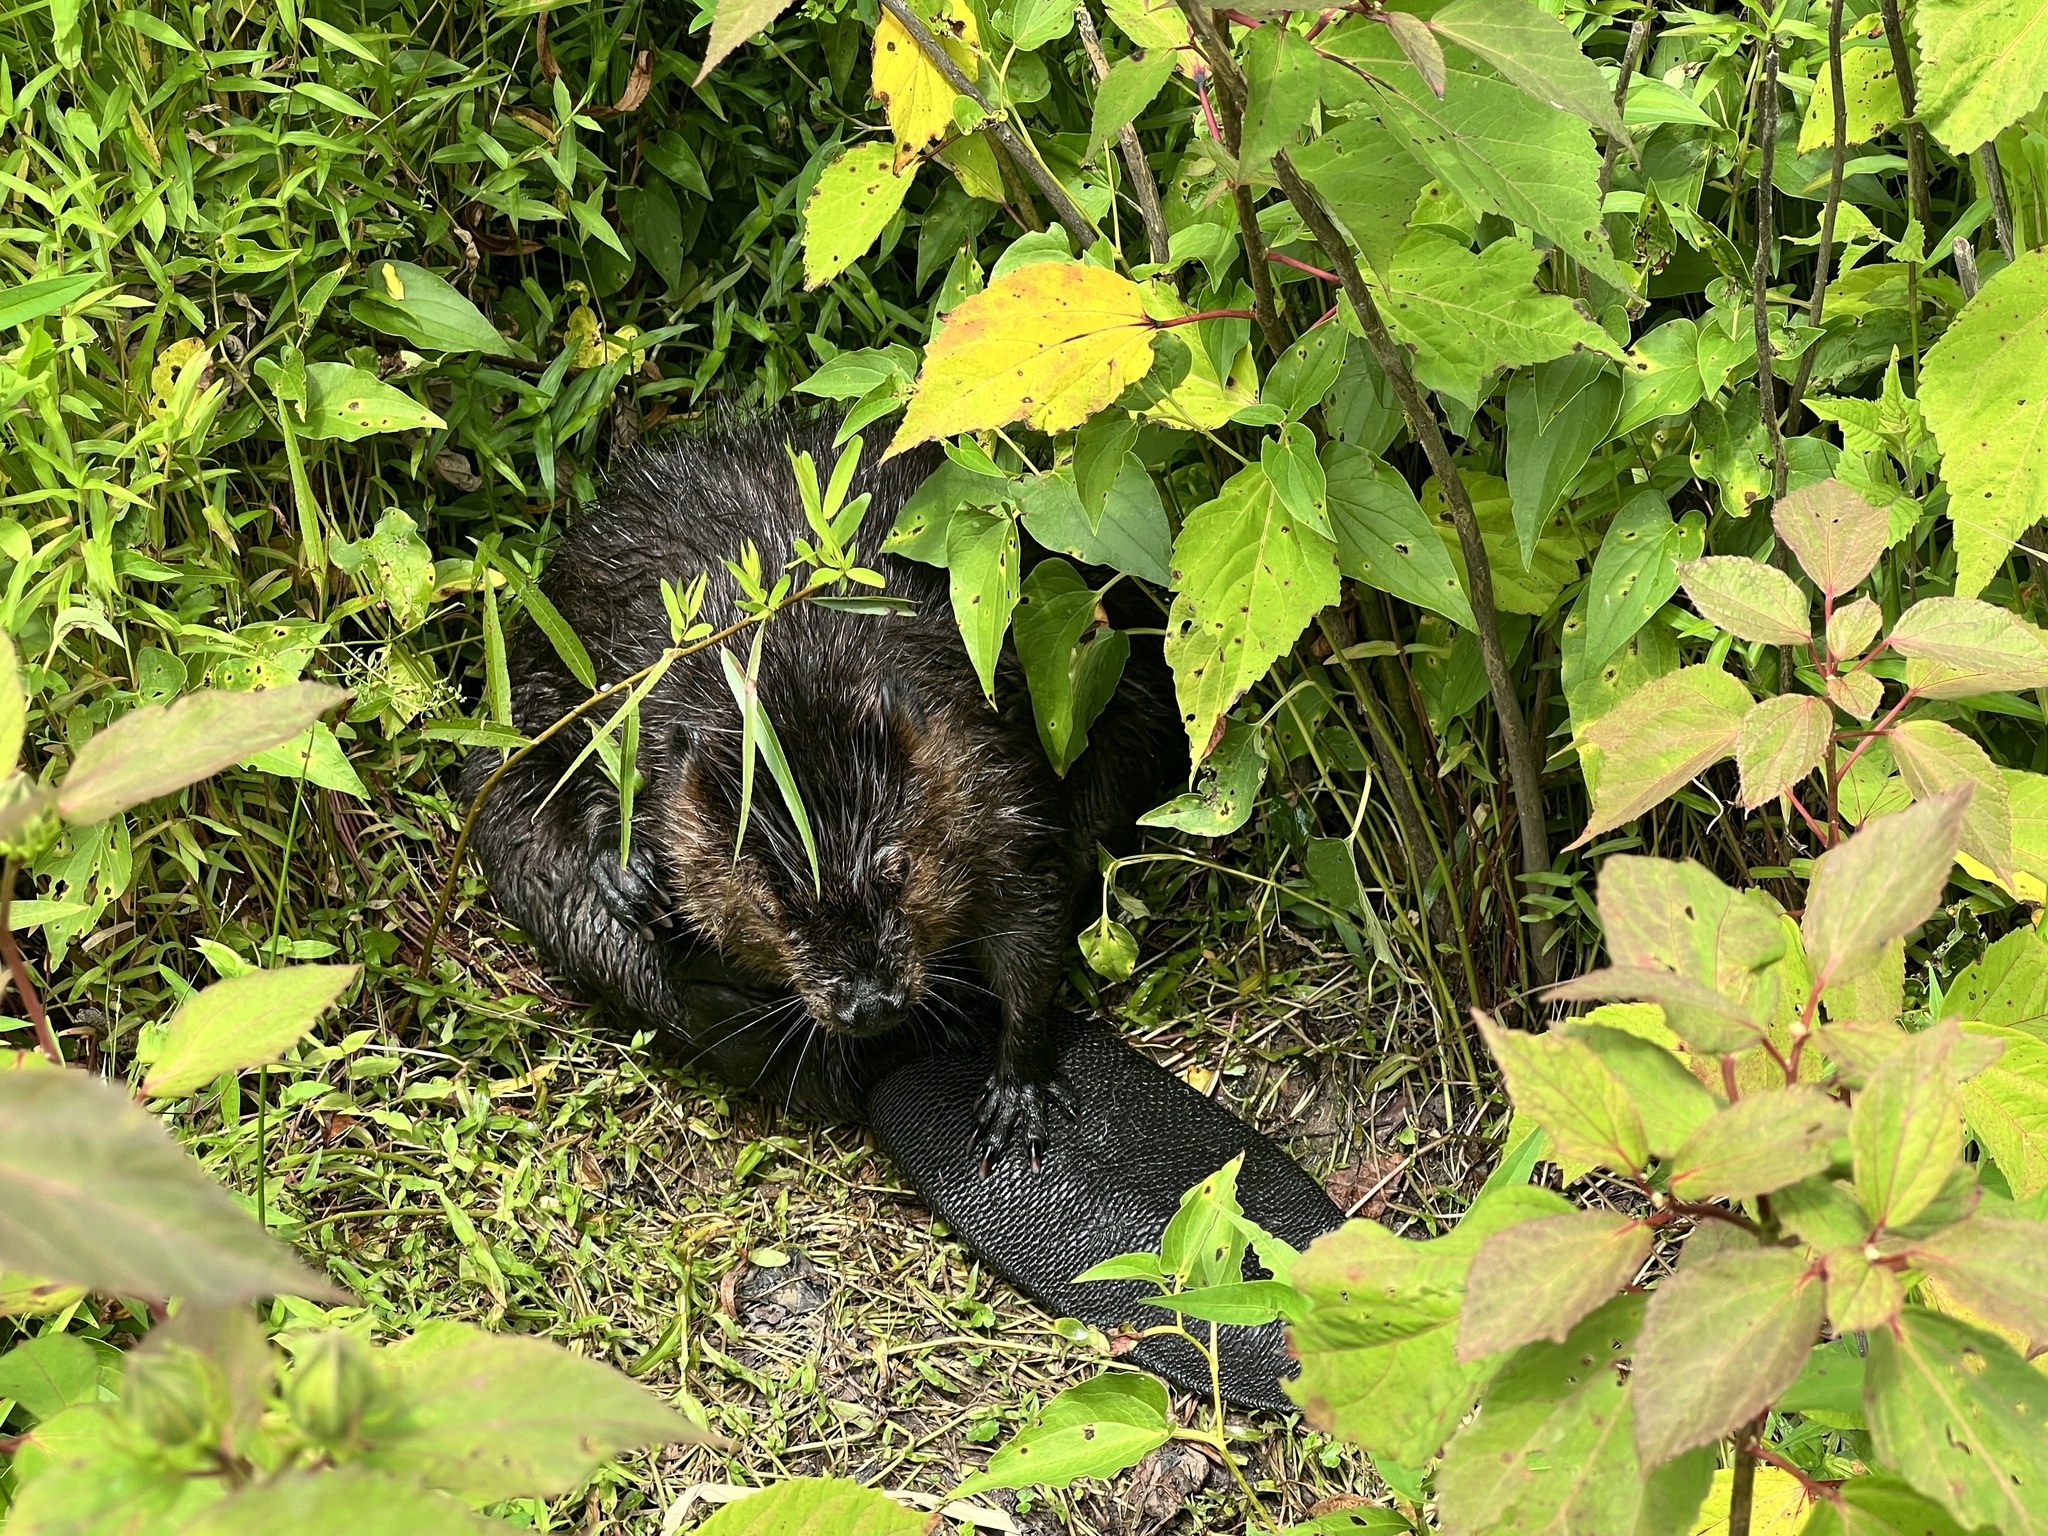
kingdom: Animalia
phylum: Chordata
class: Mammalia
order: Rodentia
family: Castoridae
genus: Castor
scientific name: Castor canadensis
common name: American beaver
